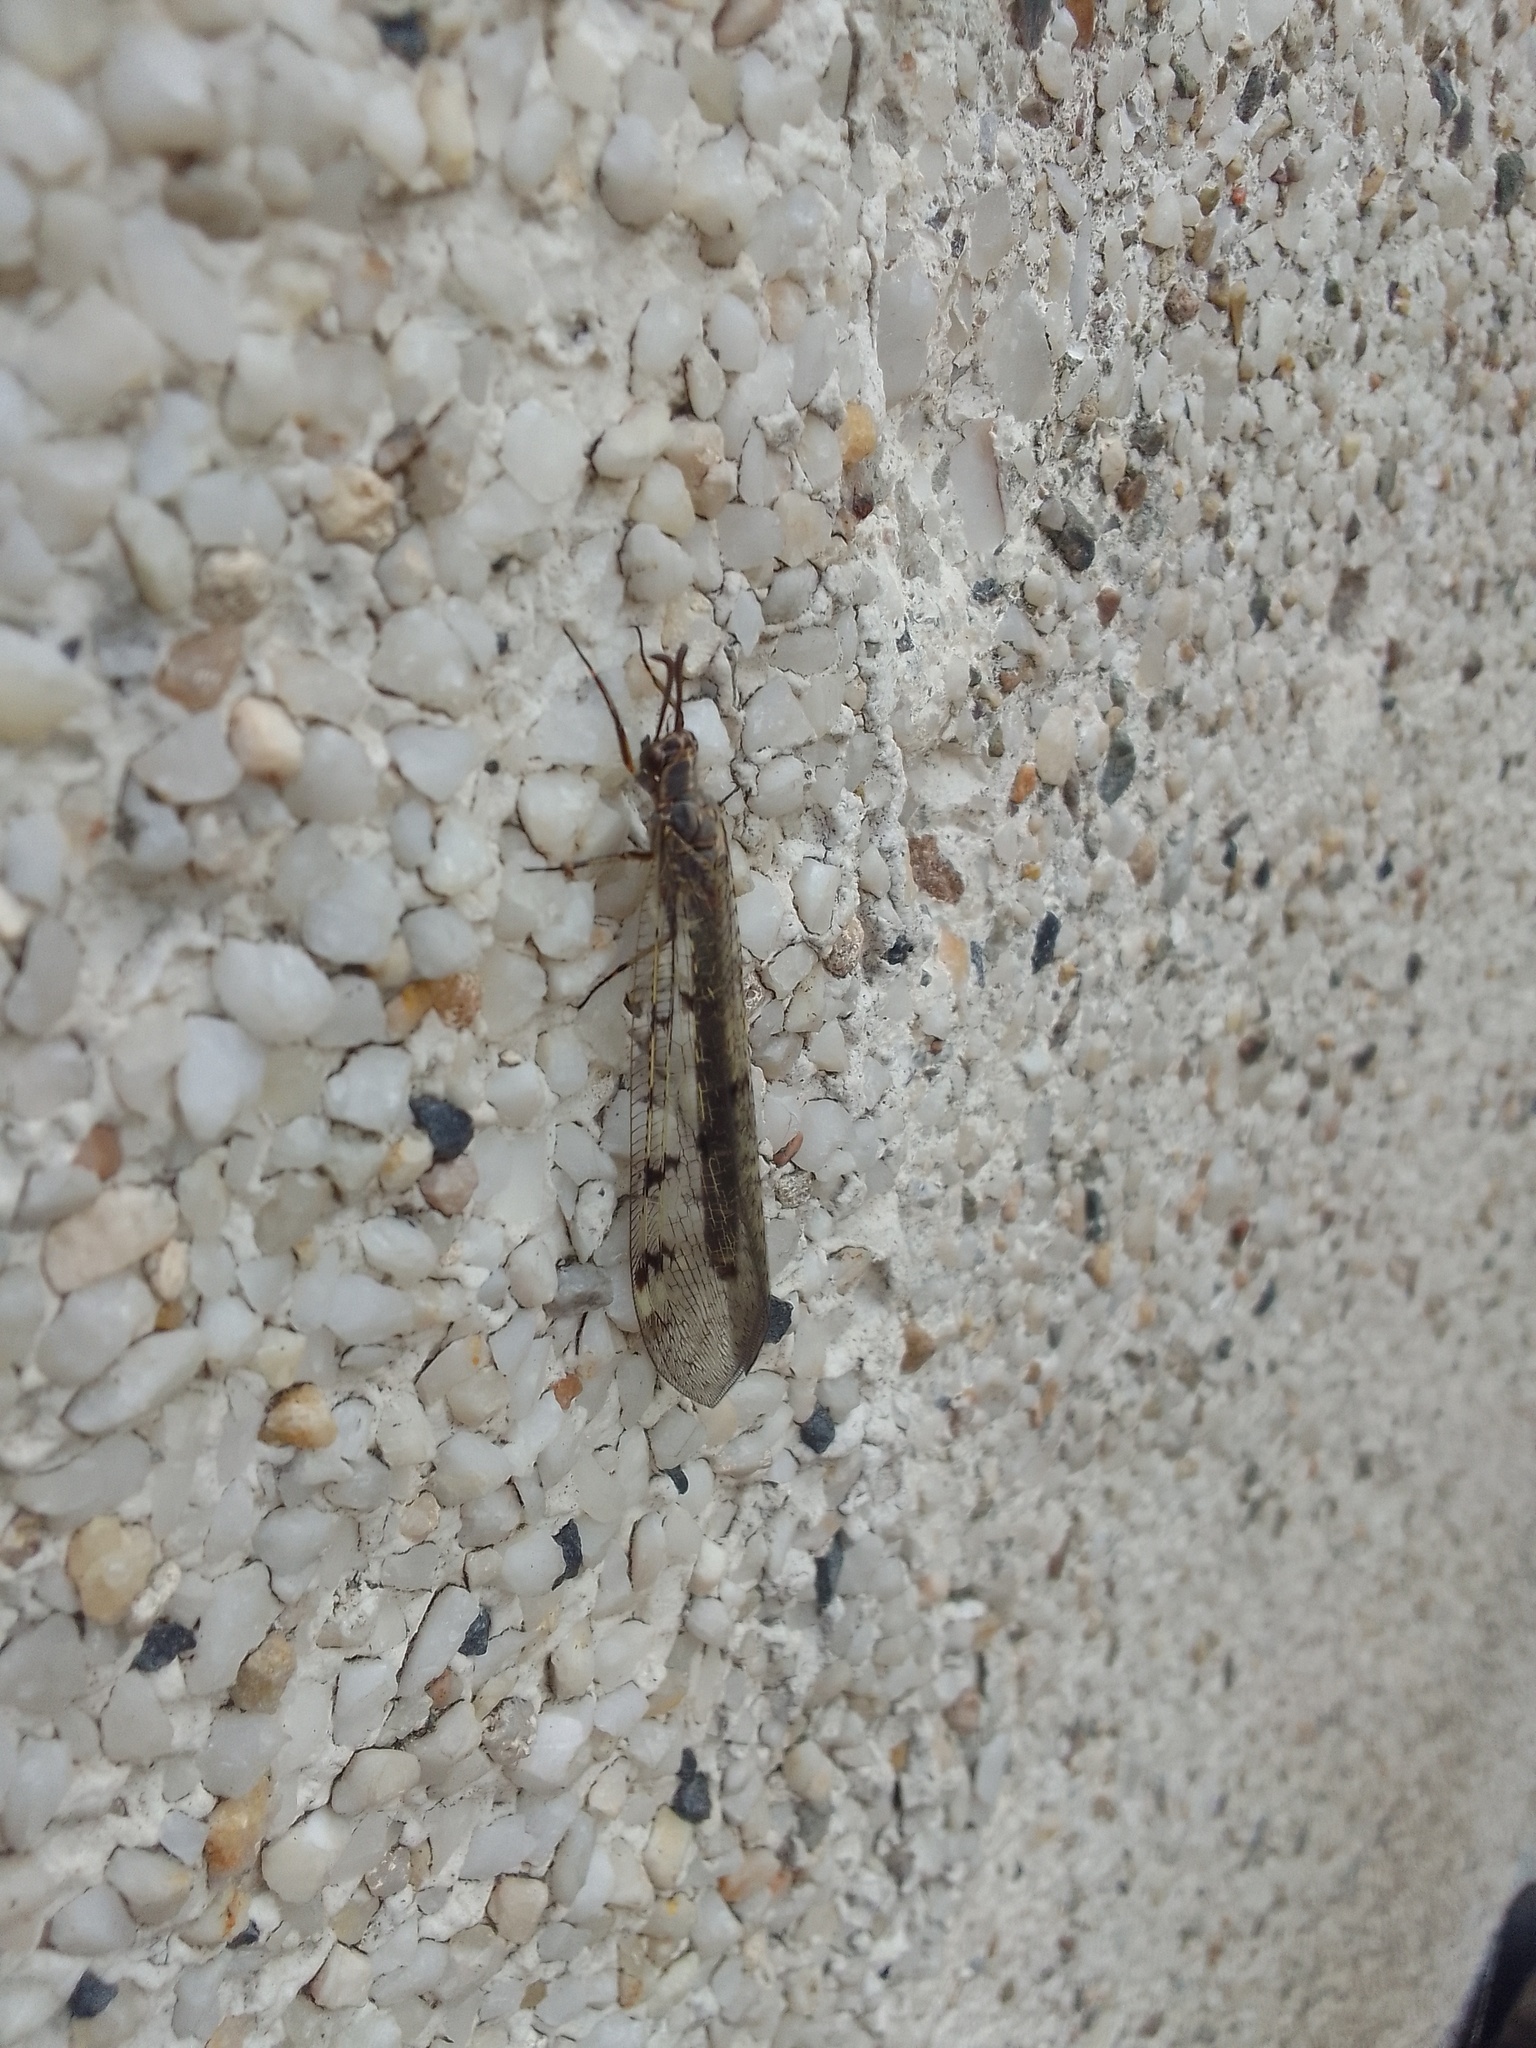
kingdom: Animalia
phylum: Arthropoda
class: Insecta
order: Neuroptera
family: Myrmeleontidae
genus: Euroleon
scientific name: Euroleon nostras
